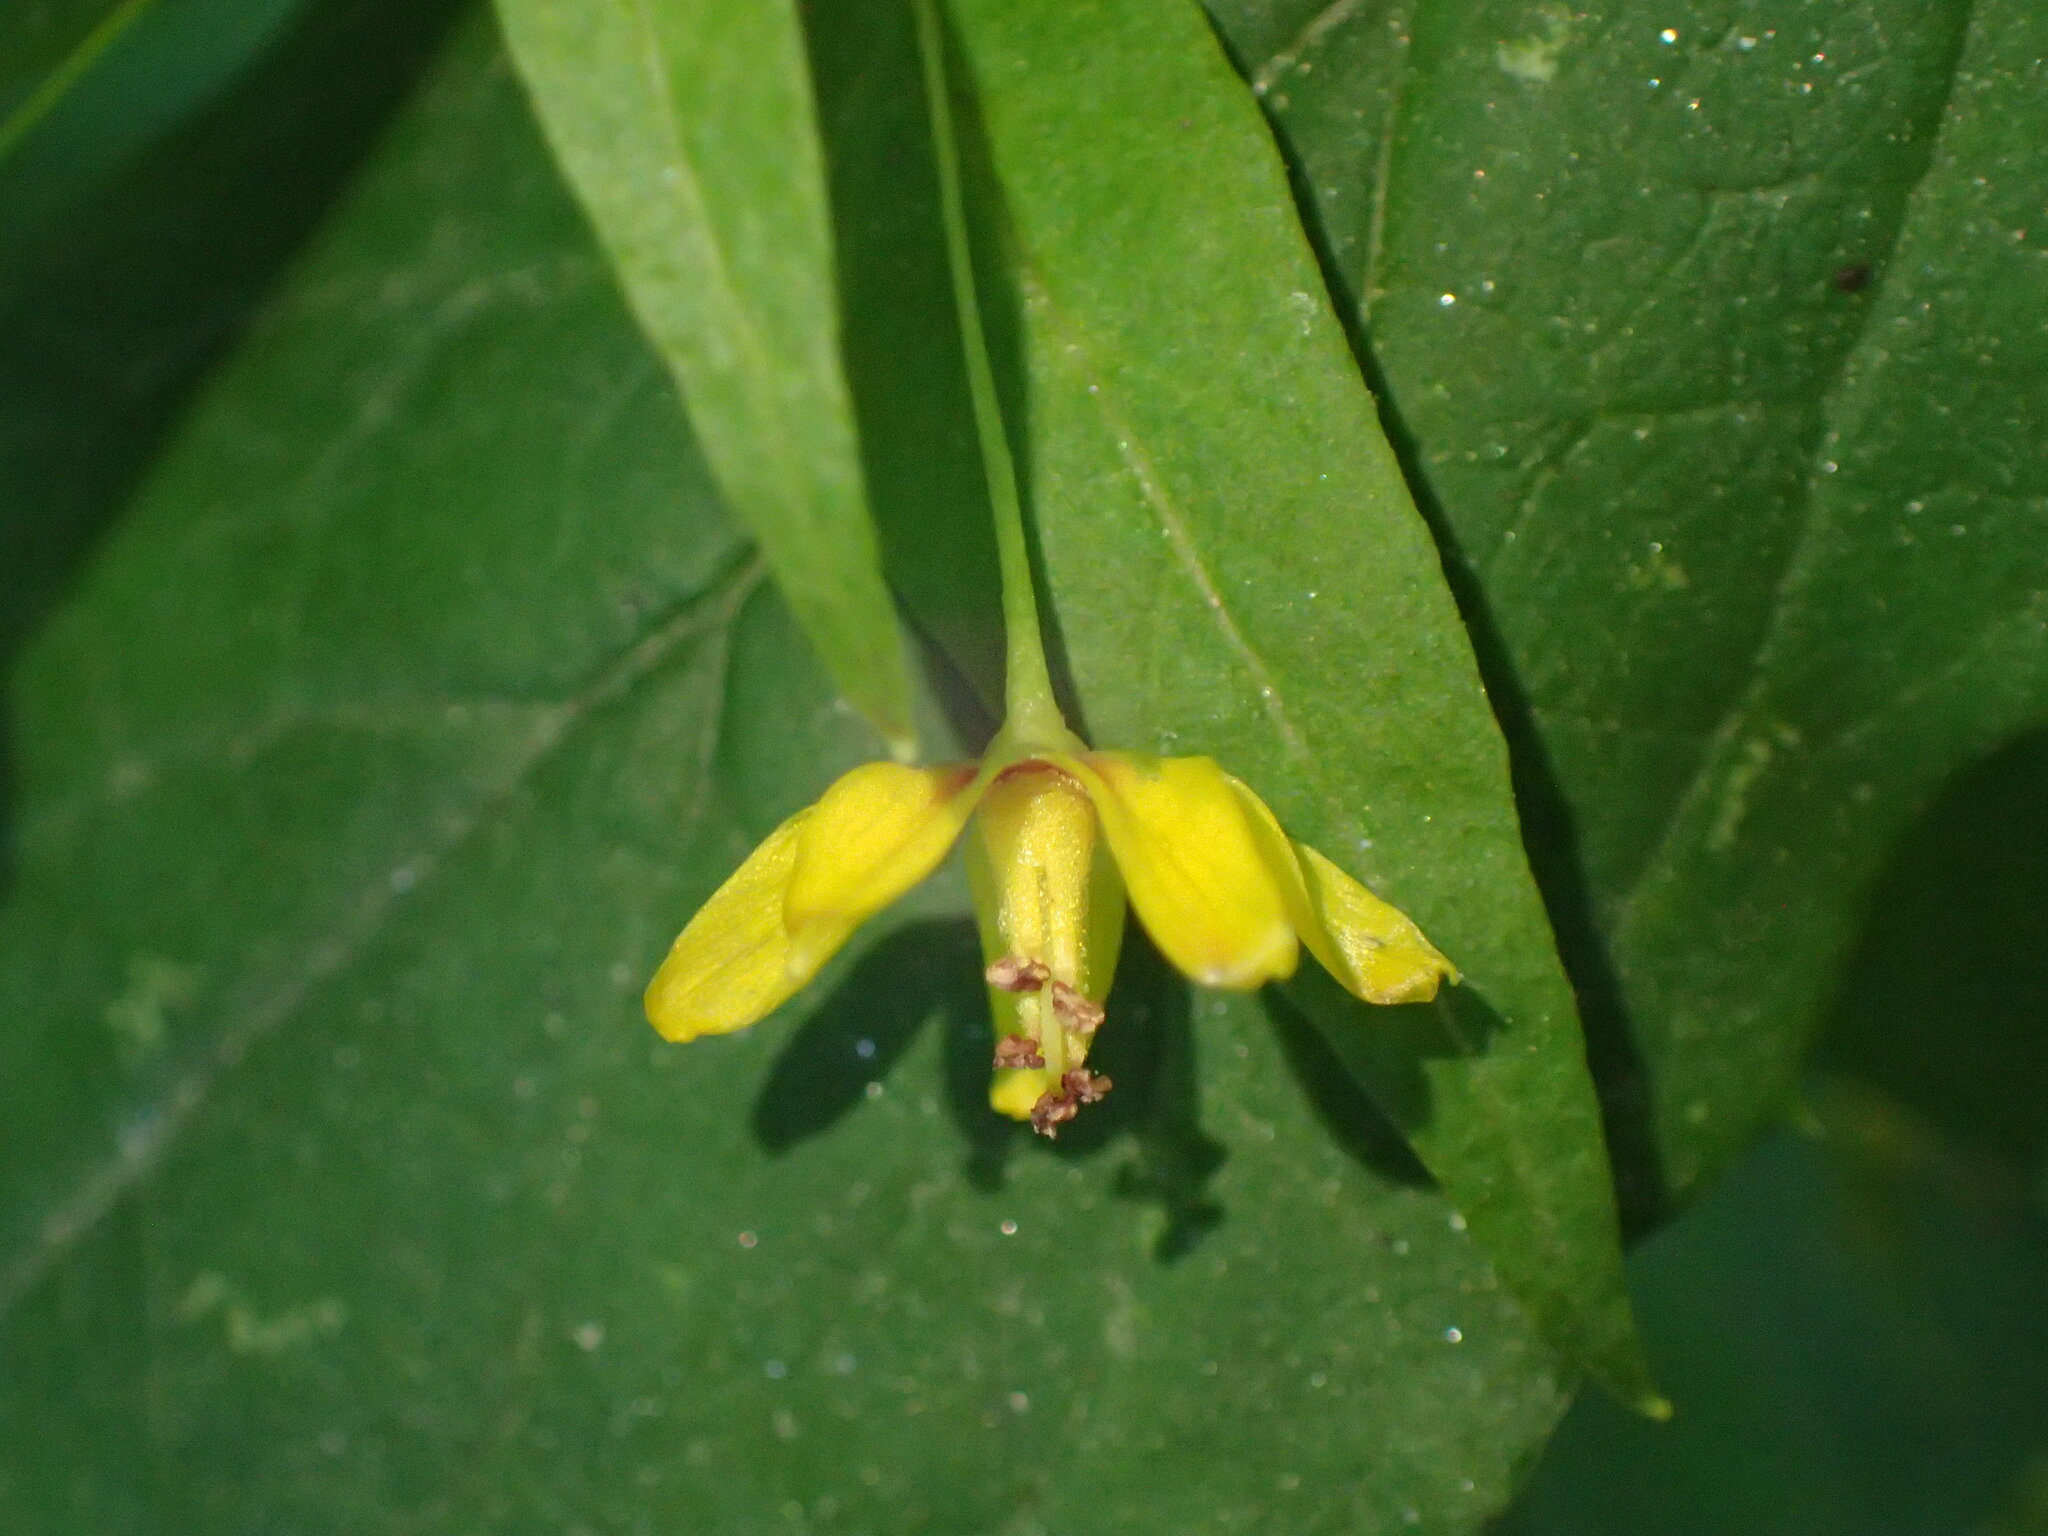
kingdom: Plantae
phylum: Tracheophyta
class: Magnoliopsida
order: Ericales
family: Primulaceae
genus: Lysimachia
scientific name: Lysimachia quadrifolia
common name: Whorled loosestrife
